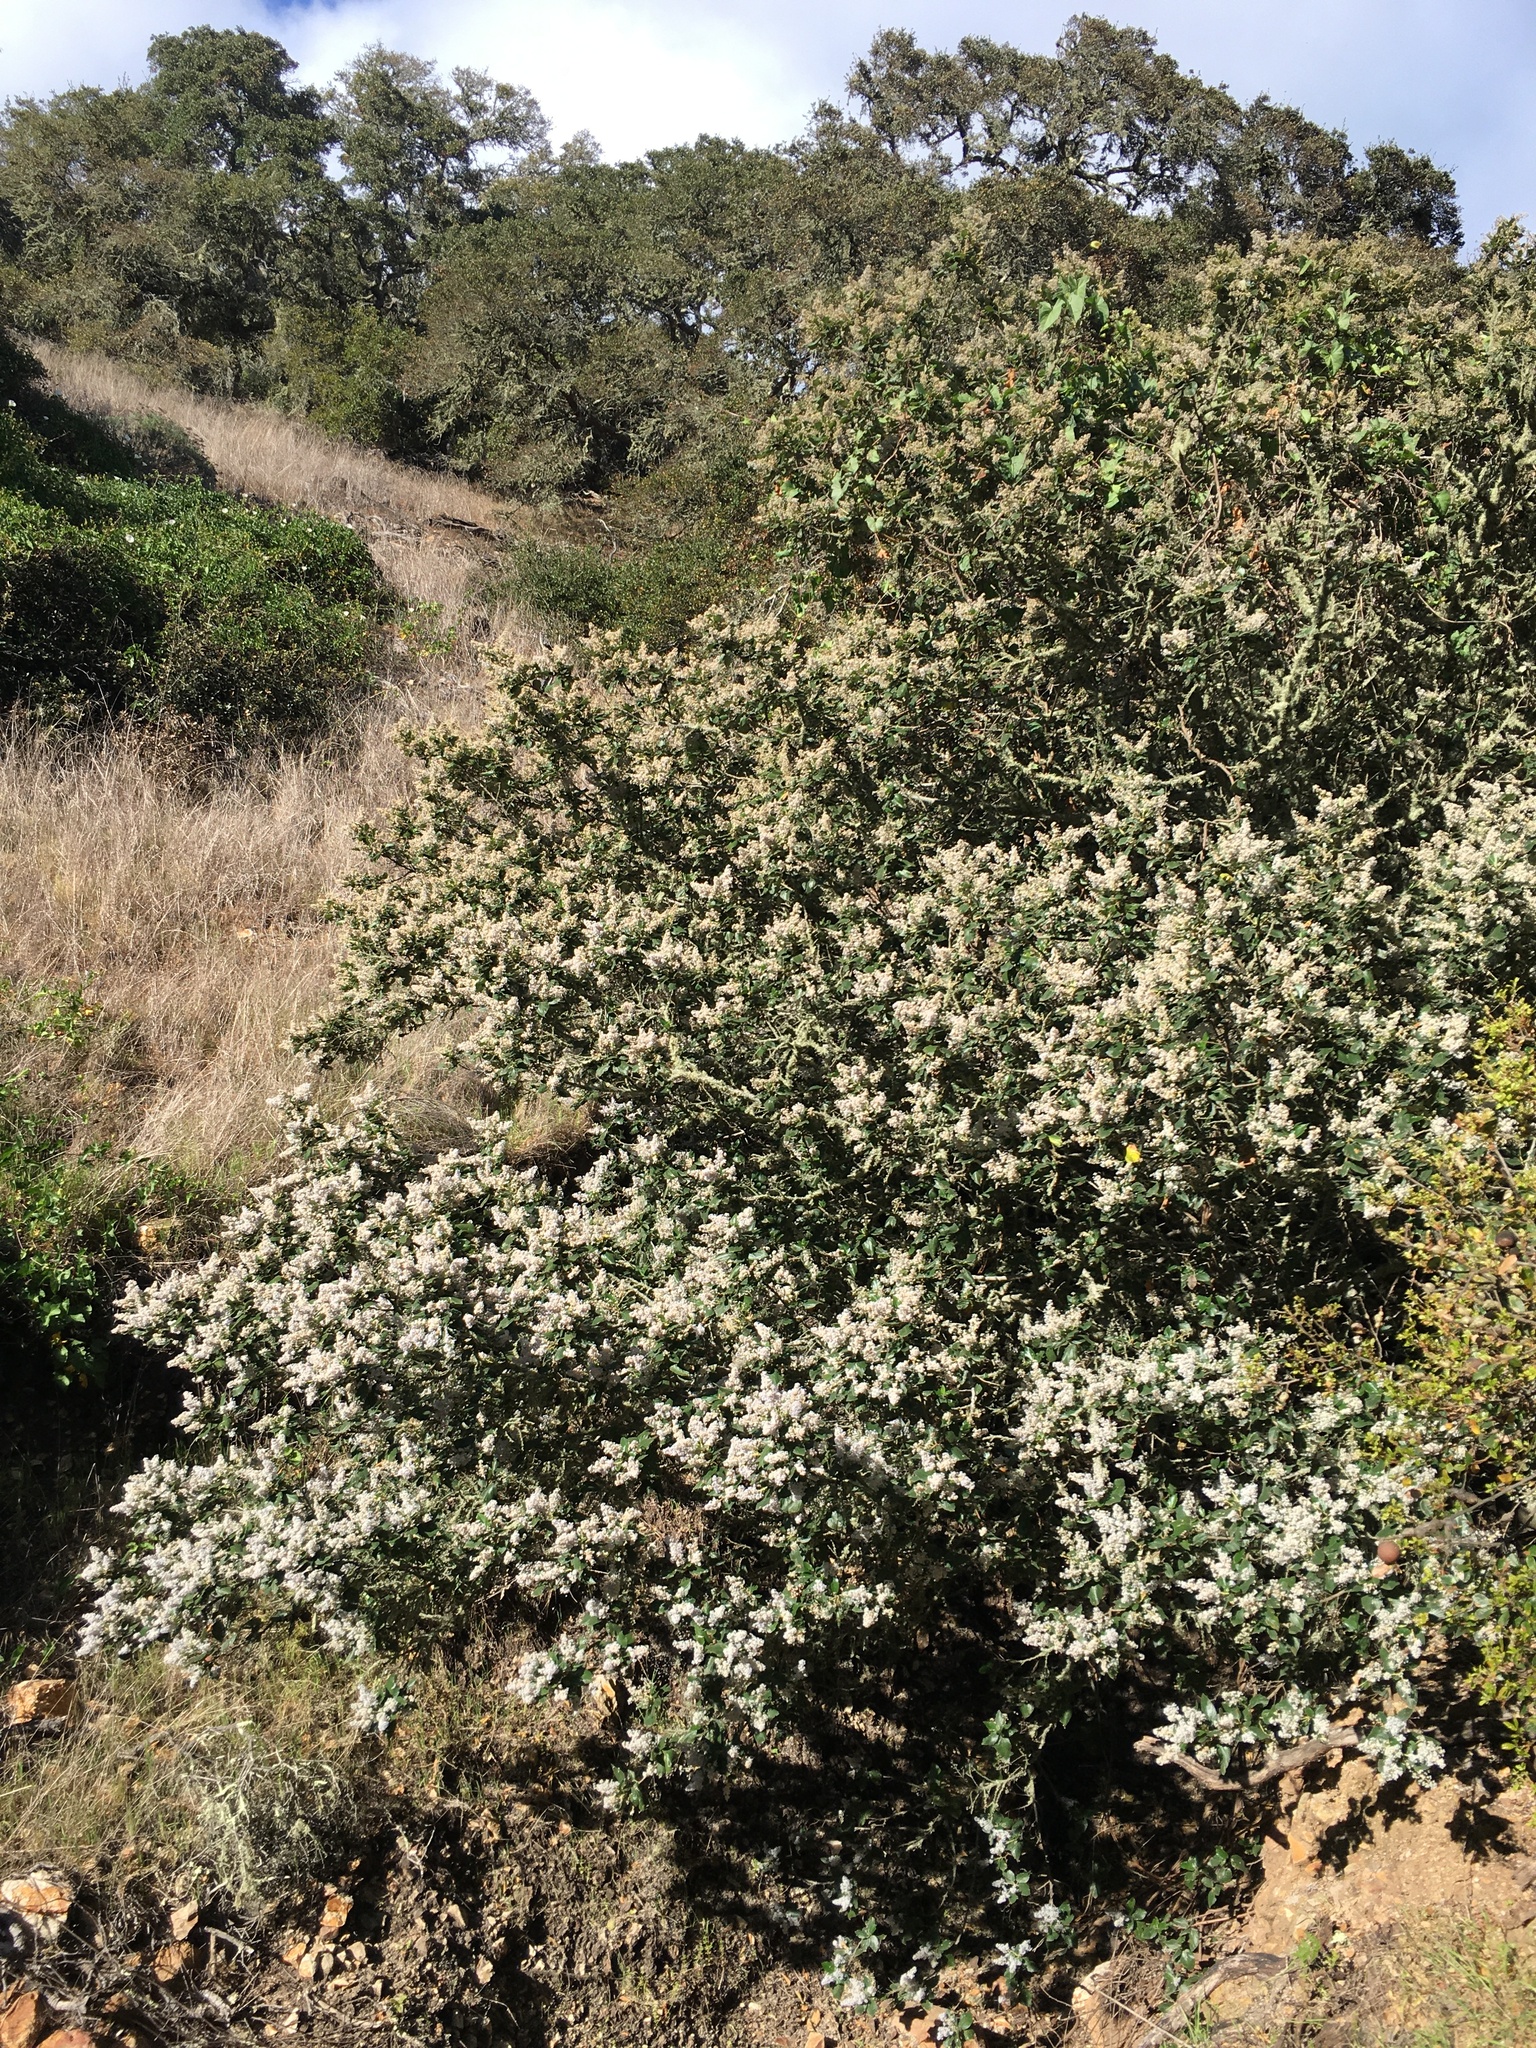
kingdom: Plantae
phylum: Tracheophyta
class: Magnoliopsida
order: Rosales
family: Rhamnaceae
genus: Ceanothus
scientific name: Ceanothus arboreus
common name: Catalina mountain-lilac
